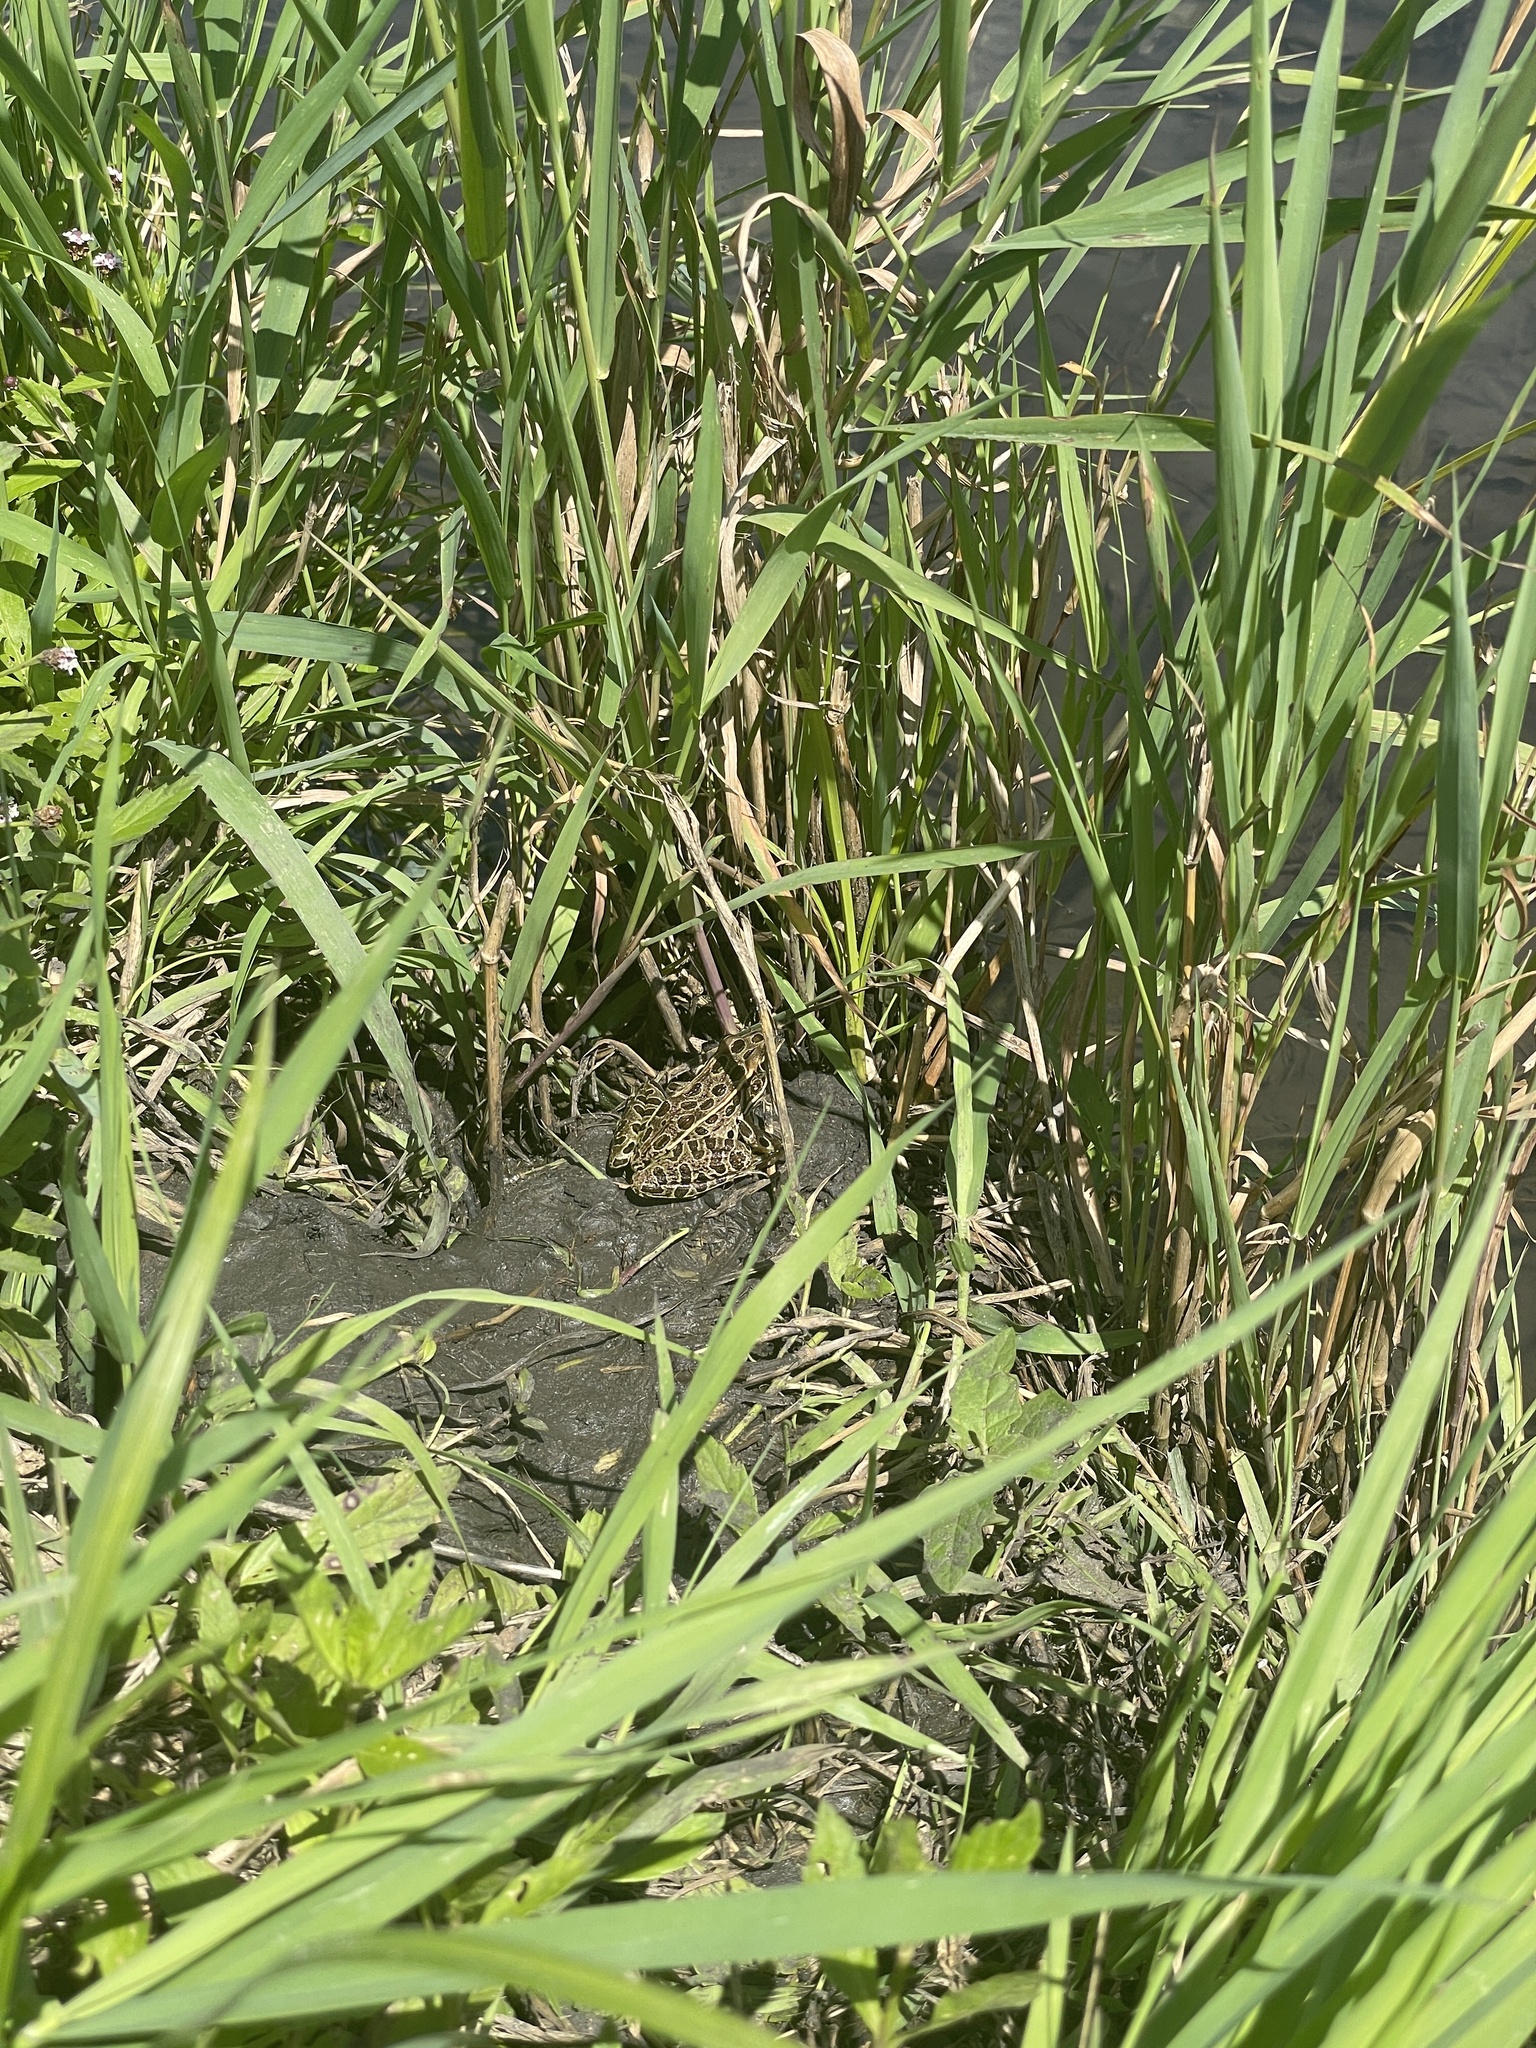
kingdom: Animalia
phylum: Chordata
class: Amphibia
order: Anura
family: Ranidae
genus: Lithobates
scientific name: Lithobates pipiens
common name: Northern leopard frog
